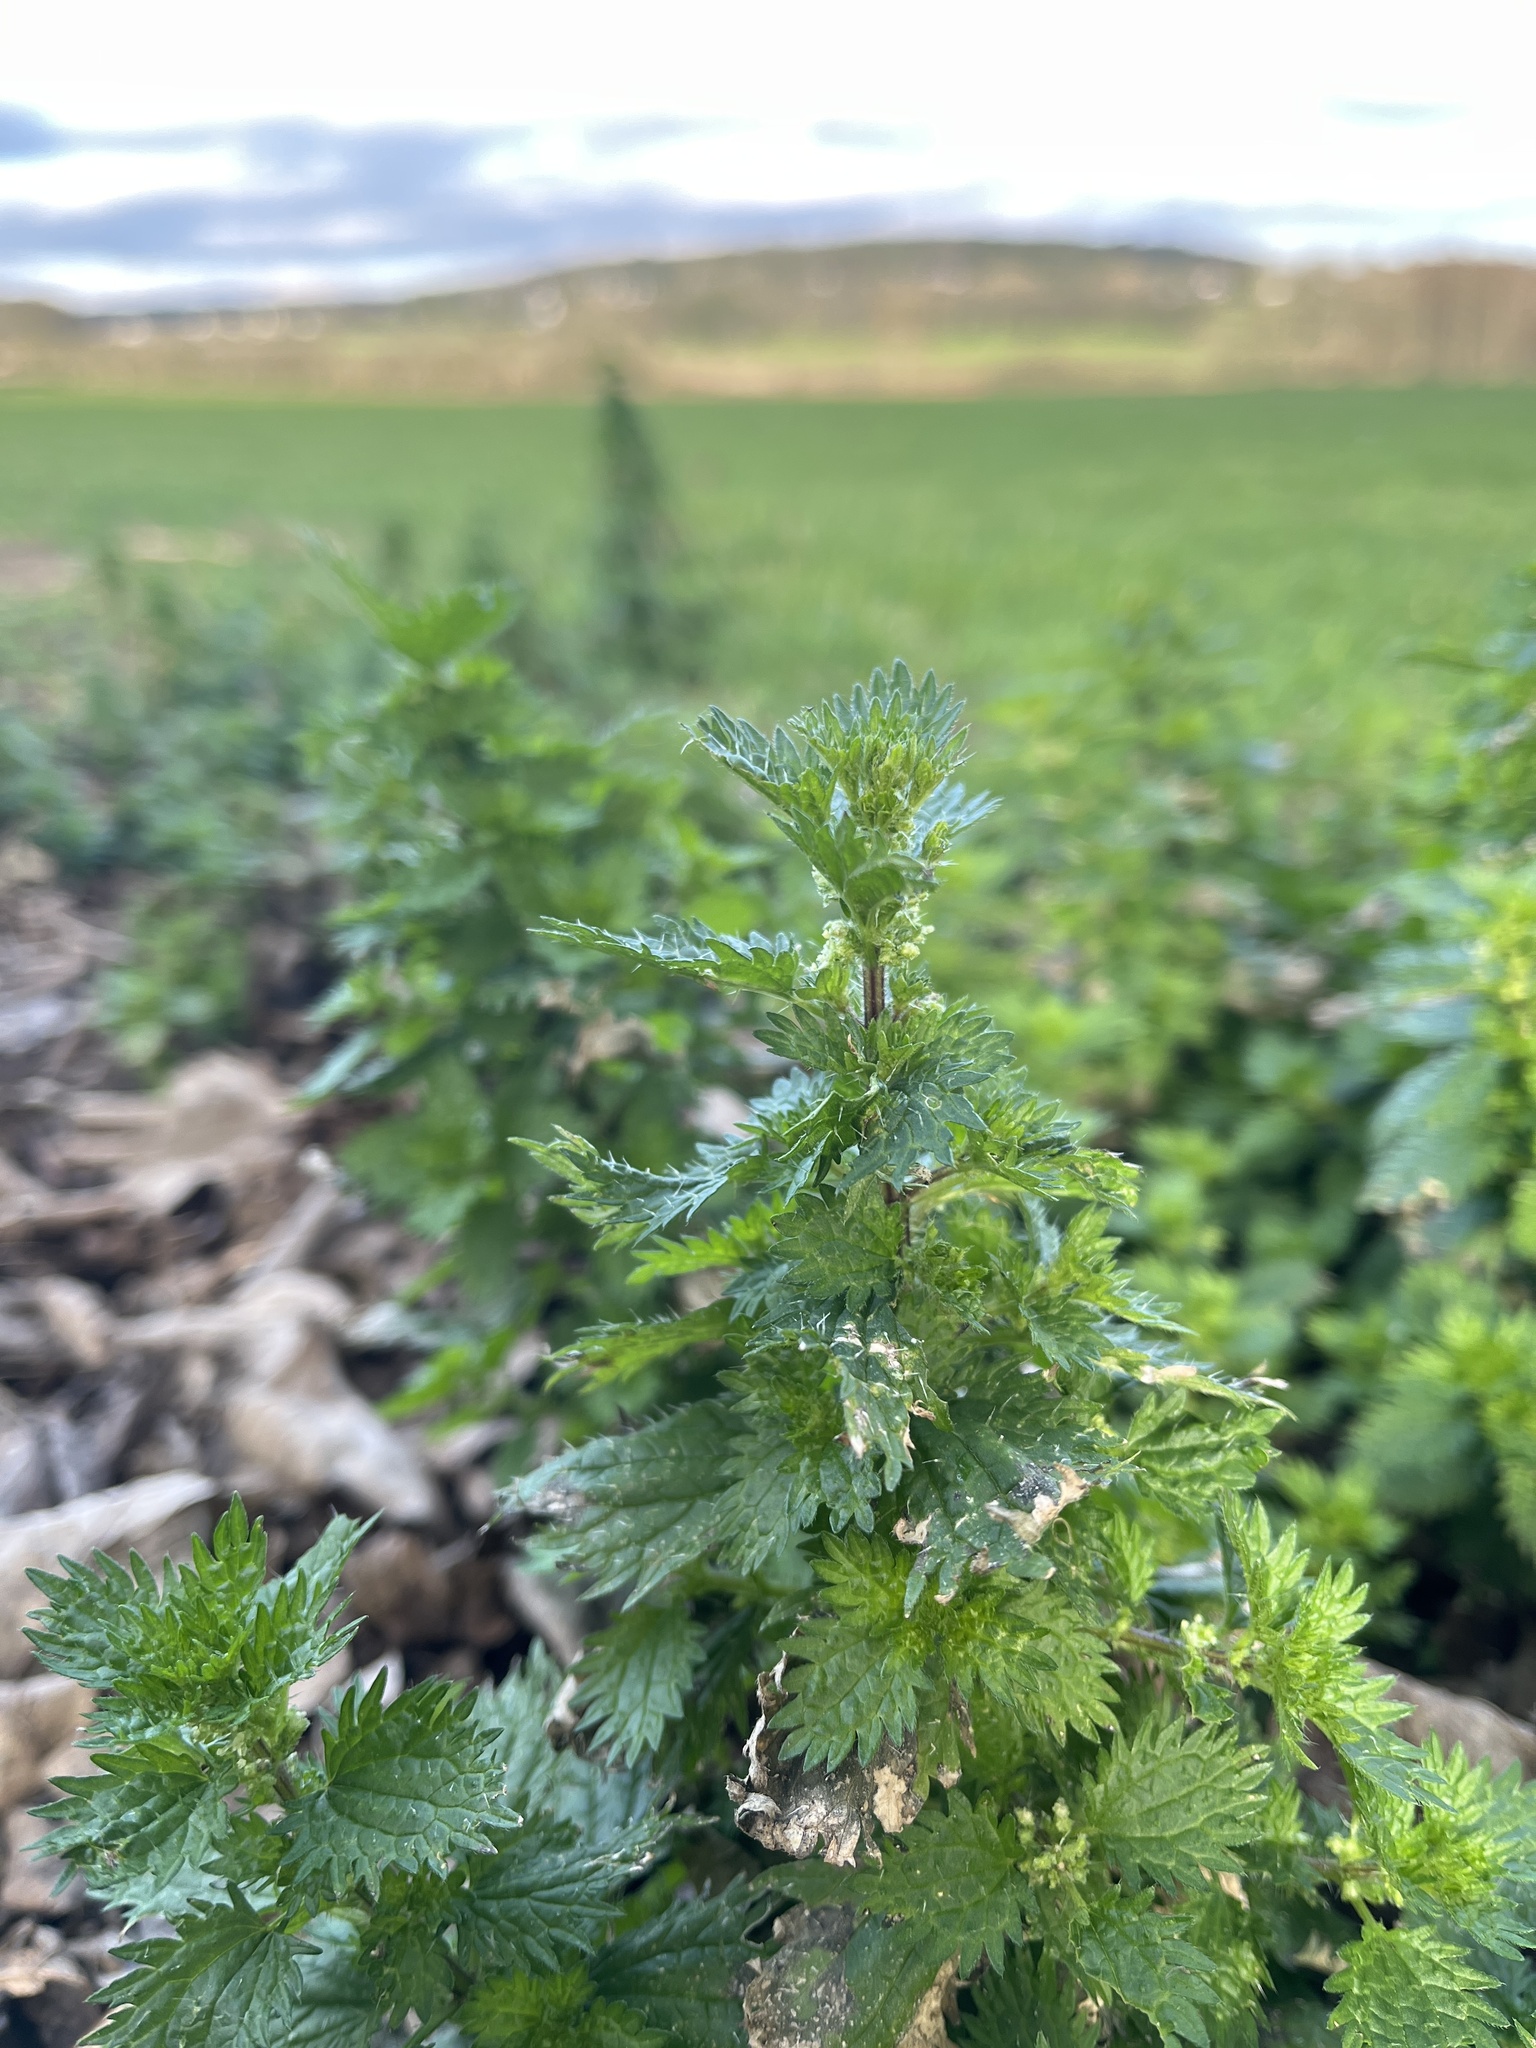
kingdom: Plantae
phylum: Tracheophyta
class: Magnoliopsida
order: Rosales
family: Urticaceae
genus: Urtica
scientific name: Urtica urens
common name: Dwarf nettle
